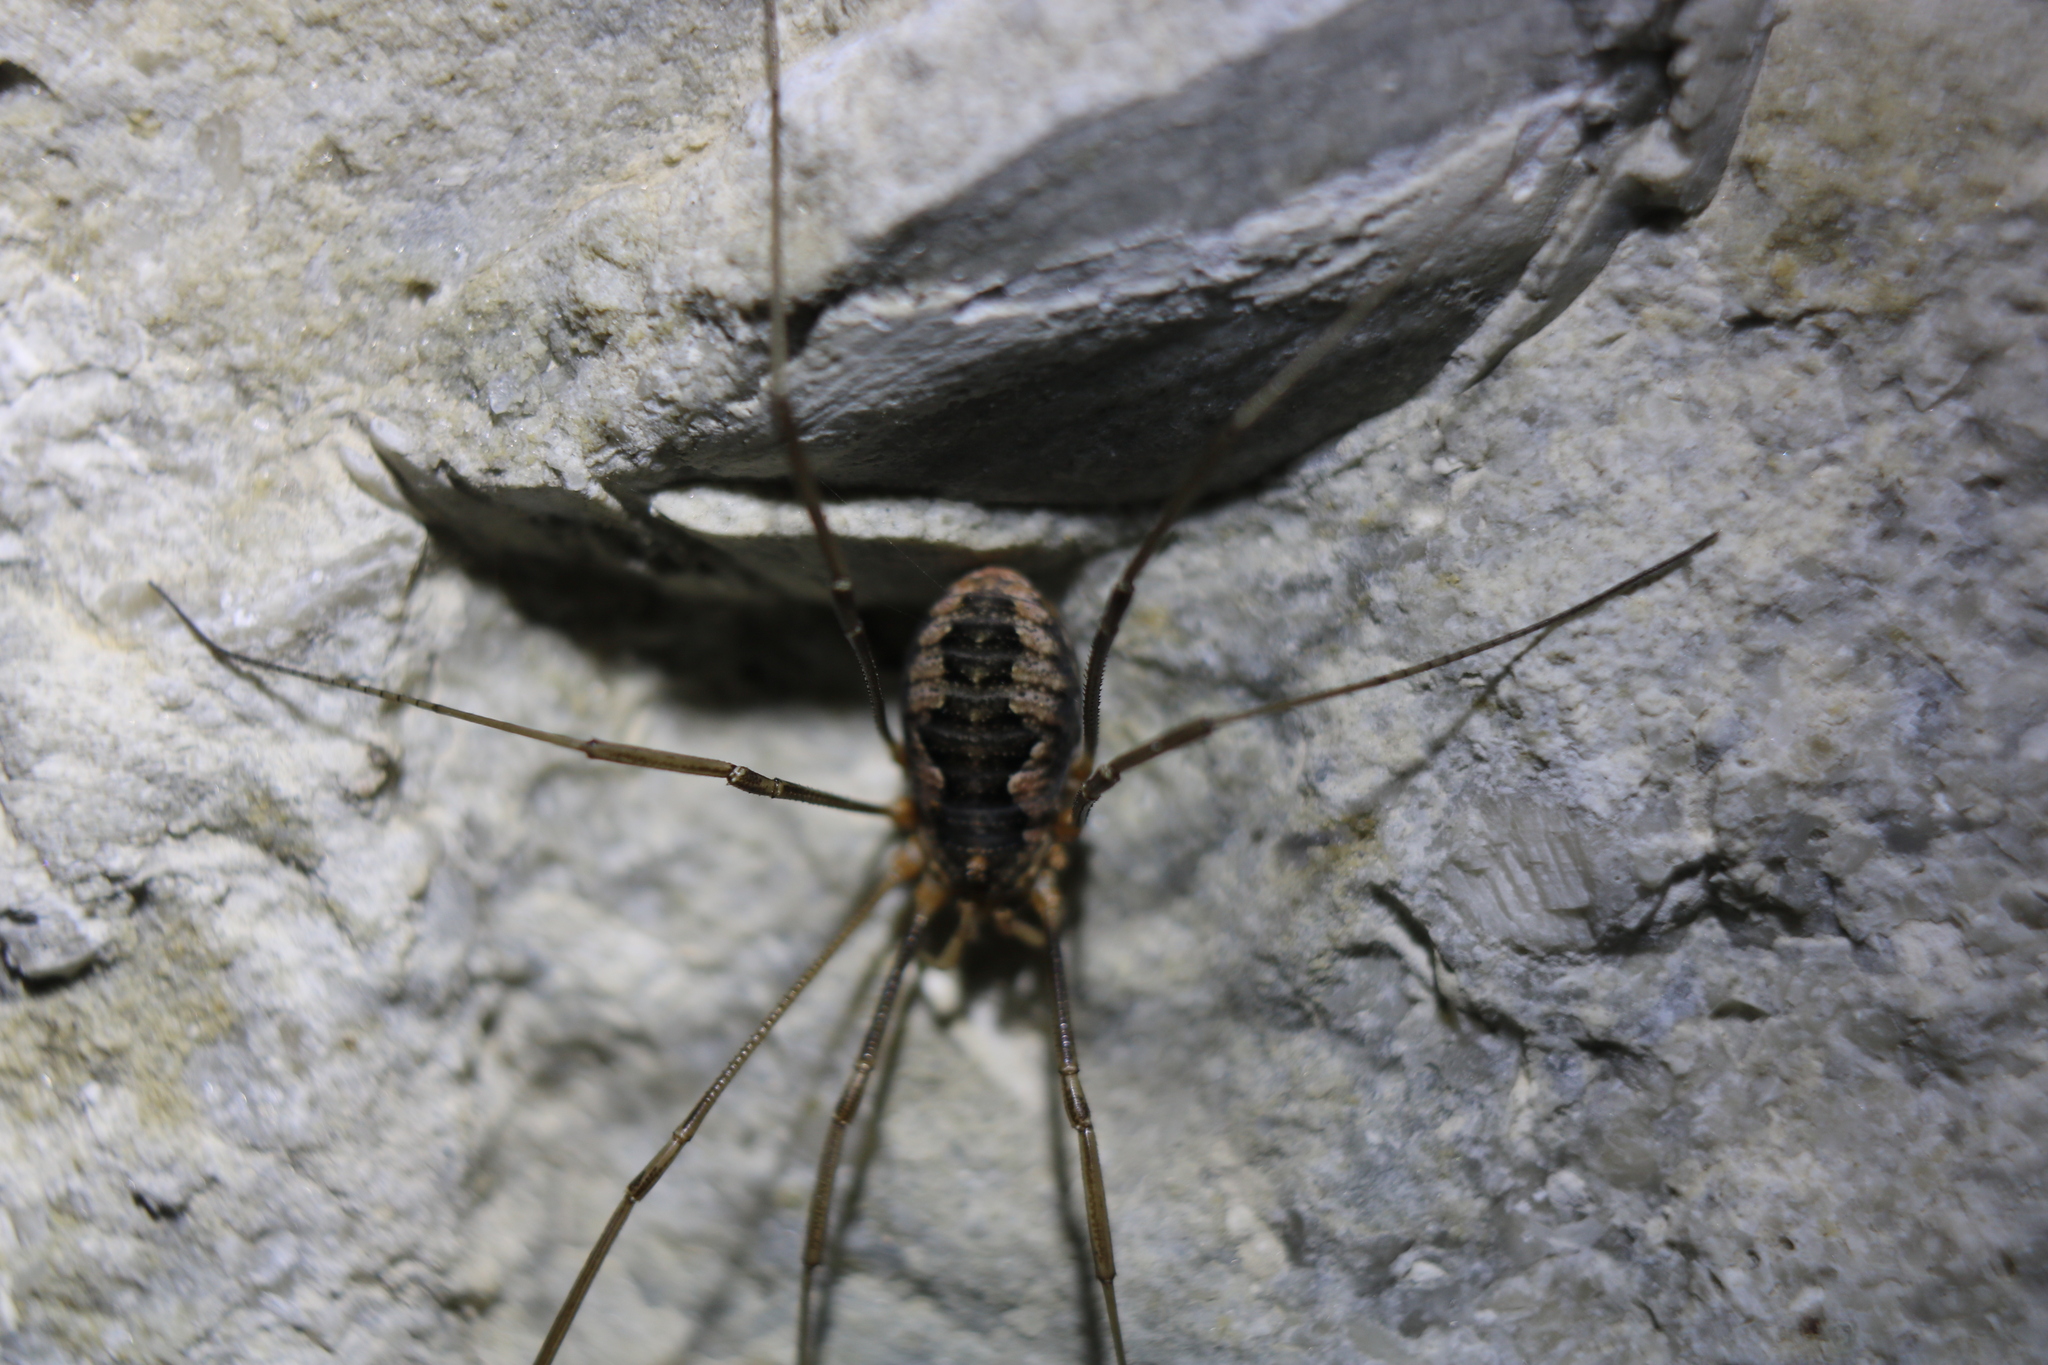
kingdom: Animalia
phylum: Arthropoda
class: Arachnida
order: Opiliones
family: Phalangiidae
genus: Phalangium
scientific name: Phalangium opilio
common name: Daddy longleg
